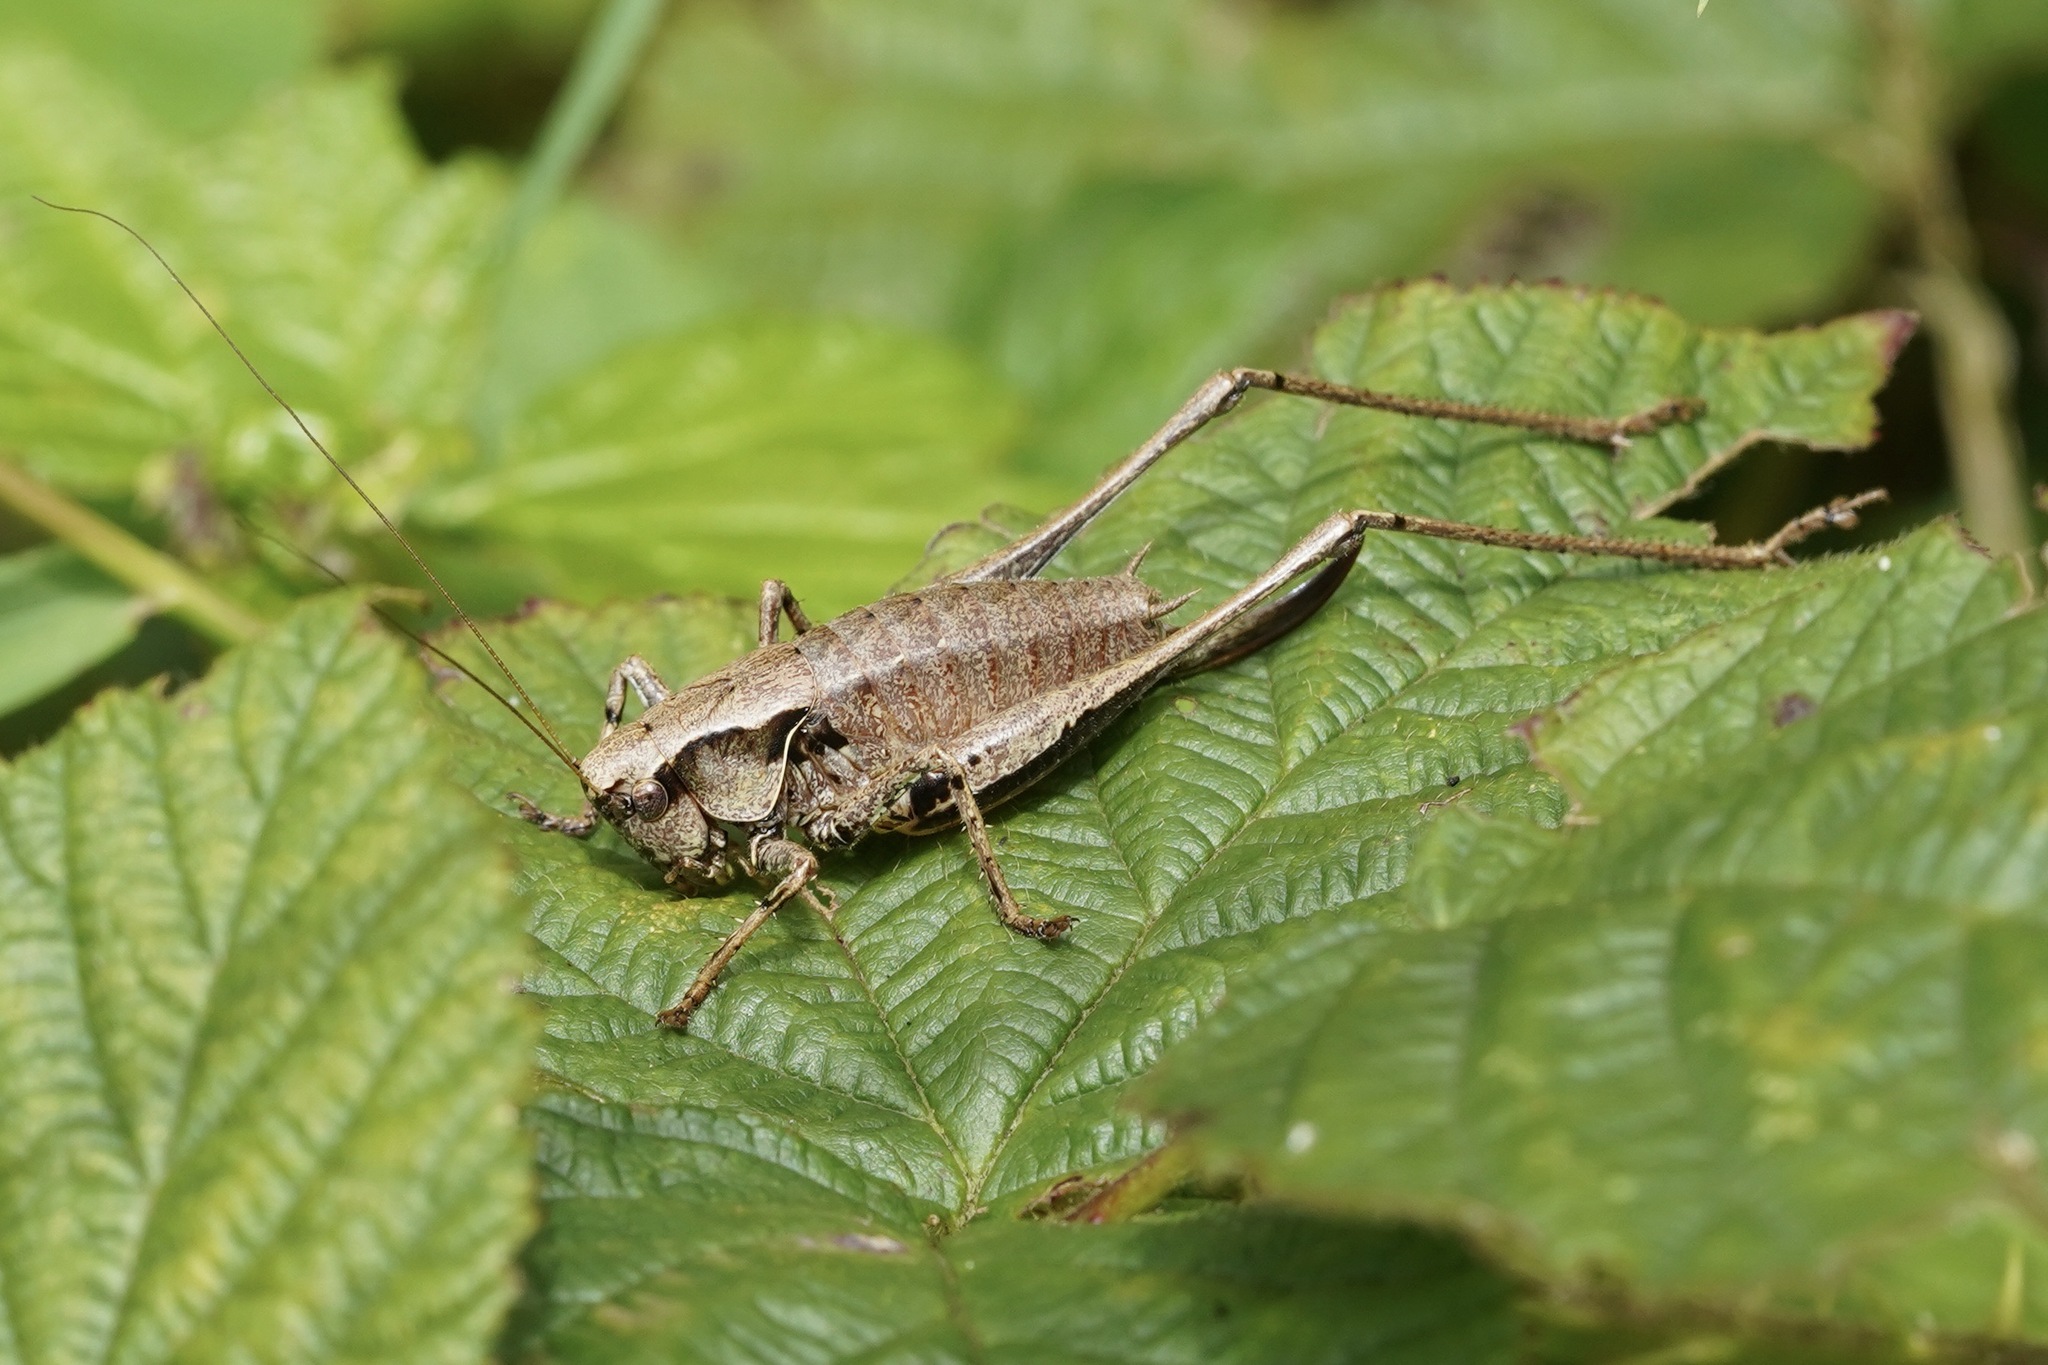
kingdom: Animalia
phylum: Arthropoda
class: Insecta
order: Orthoptera
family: Tettigoniidae
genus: Pholidoptera
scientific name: Pholidoptera griseoaptera
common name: Dark bush-cricket
